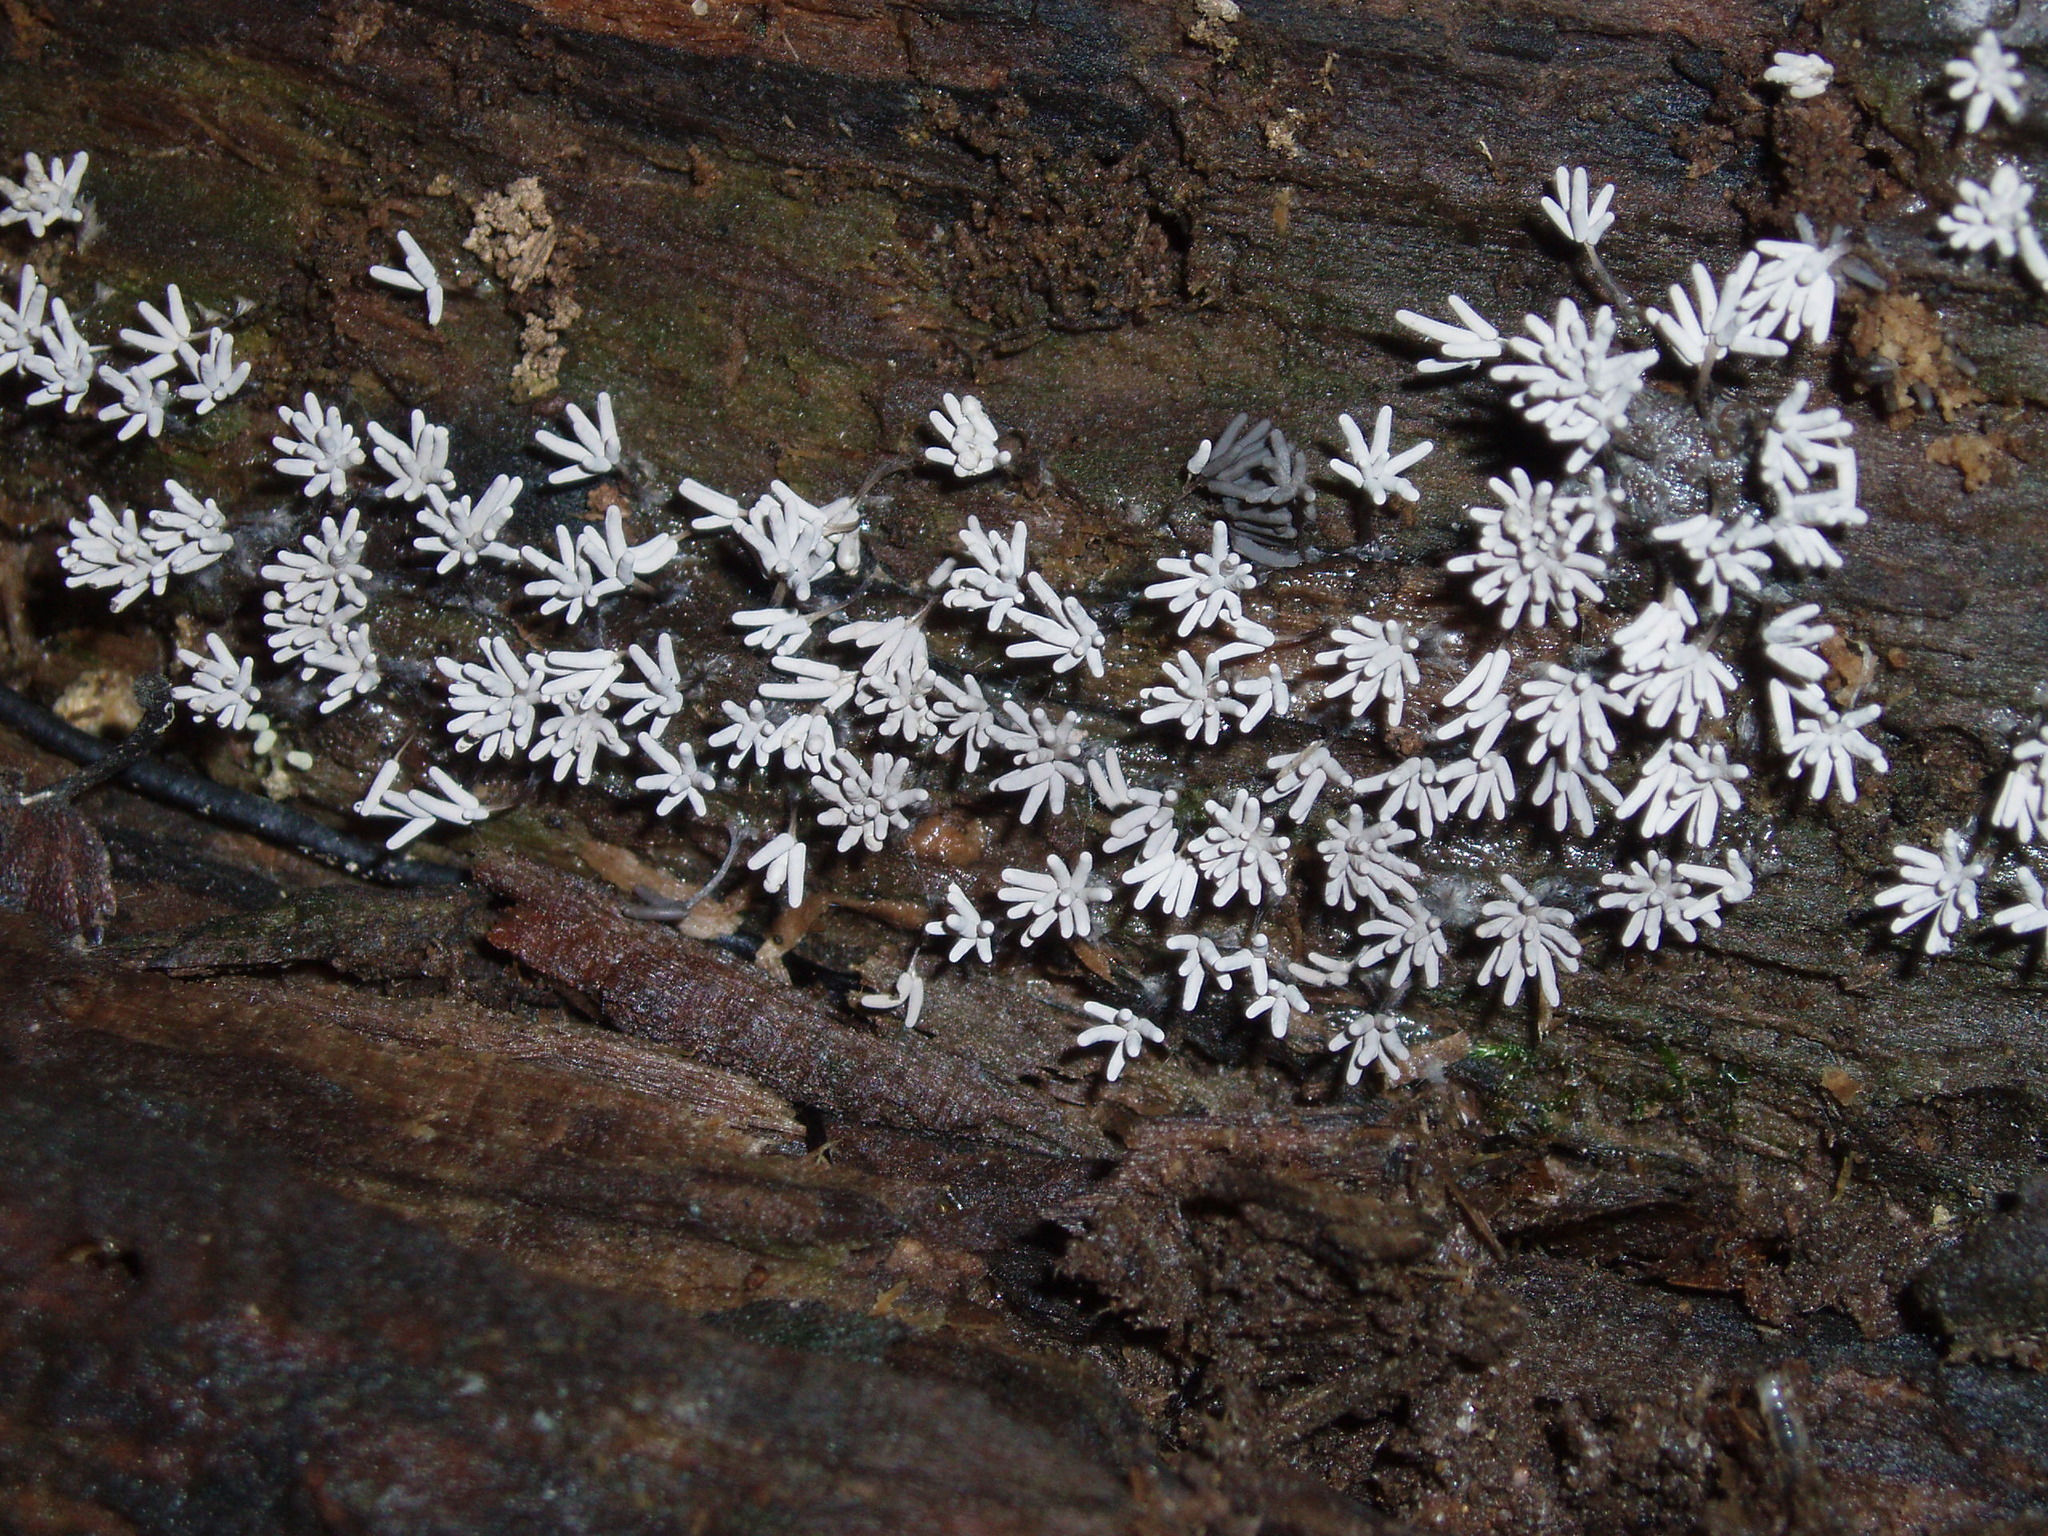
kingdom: Protozoa
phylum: Mycetozoa
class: Myxomycetes
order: Trichiales
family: Arcyriaceae
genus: Arcyria
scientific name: Arcyria cinerea
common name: White carnival candy slime mold
